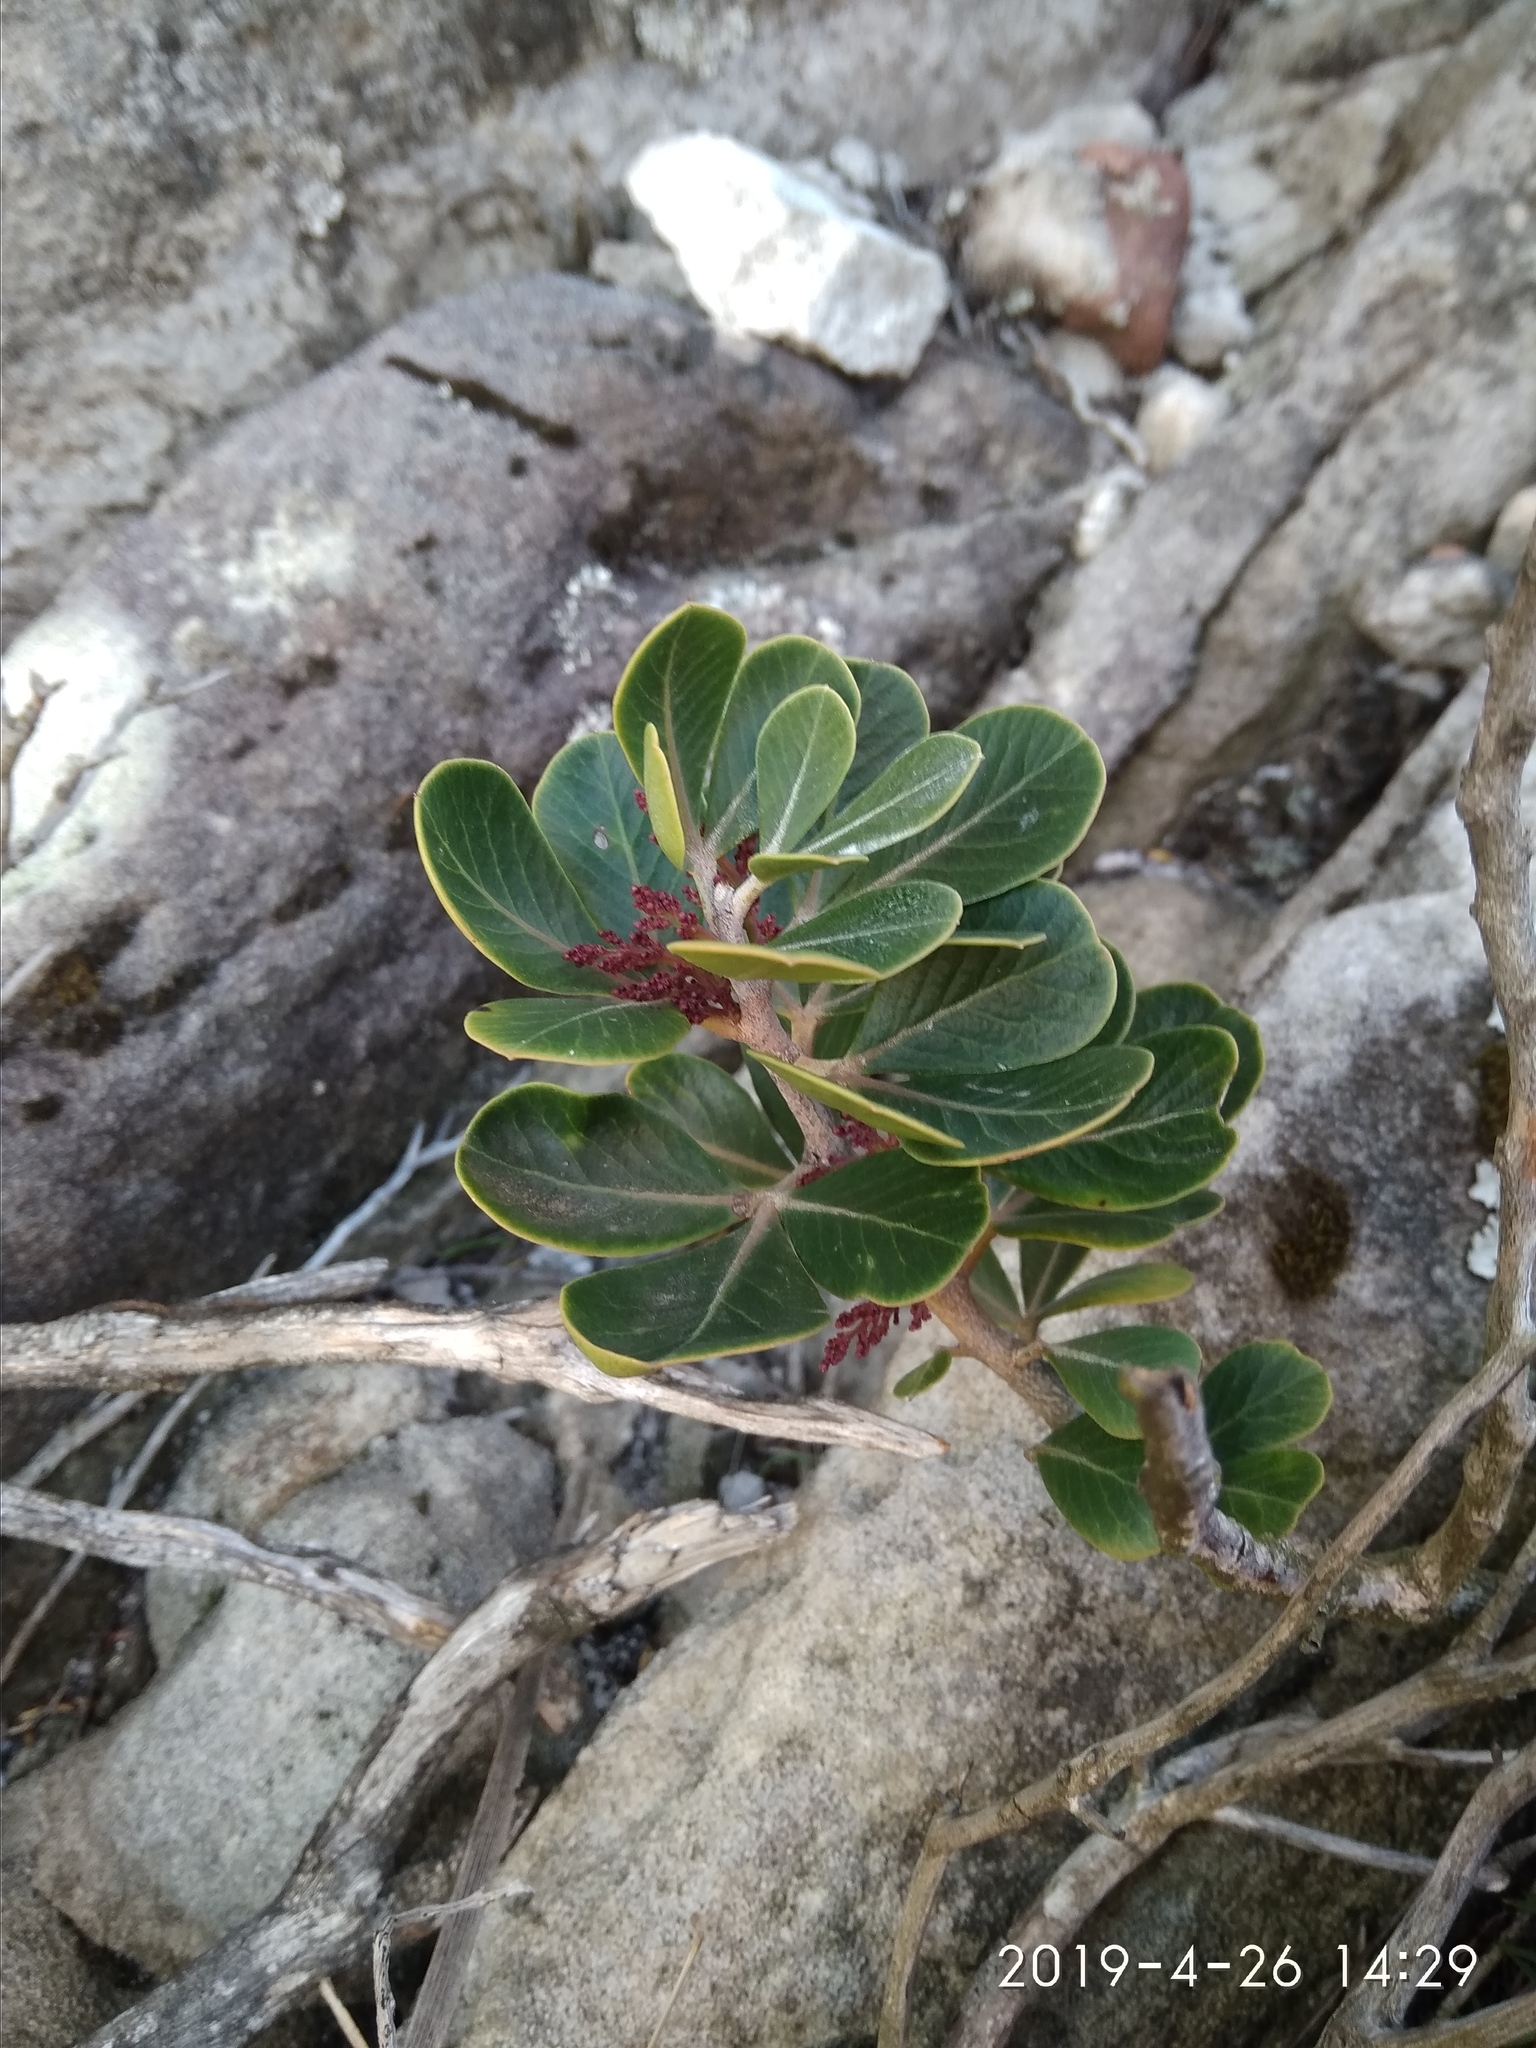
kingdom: Plantae
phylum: Tracheophyta
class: Magnoliopsida
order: Sapindales
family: Anacardiaceae
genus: Searsia
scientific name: Searsia scytophylla
